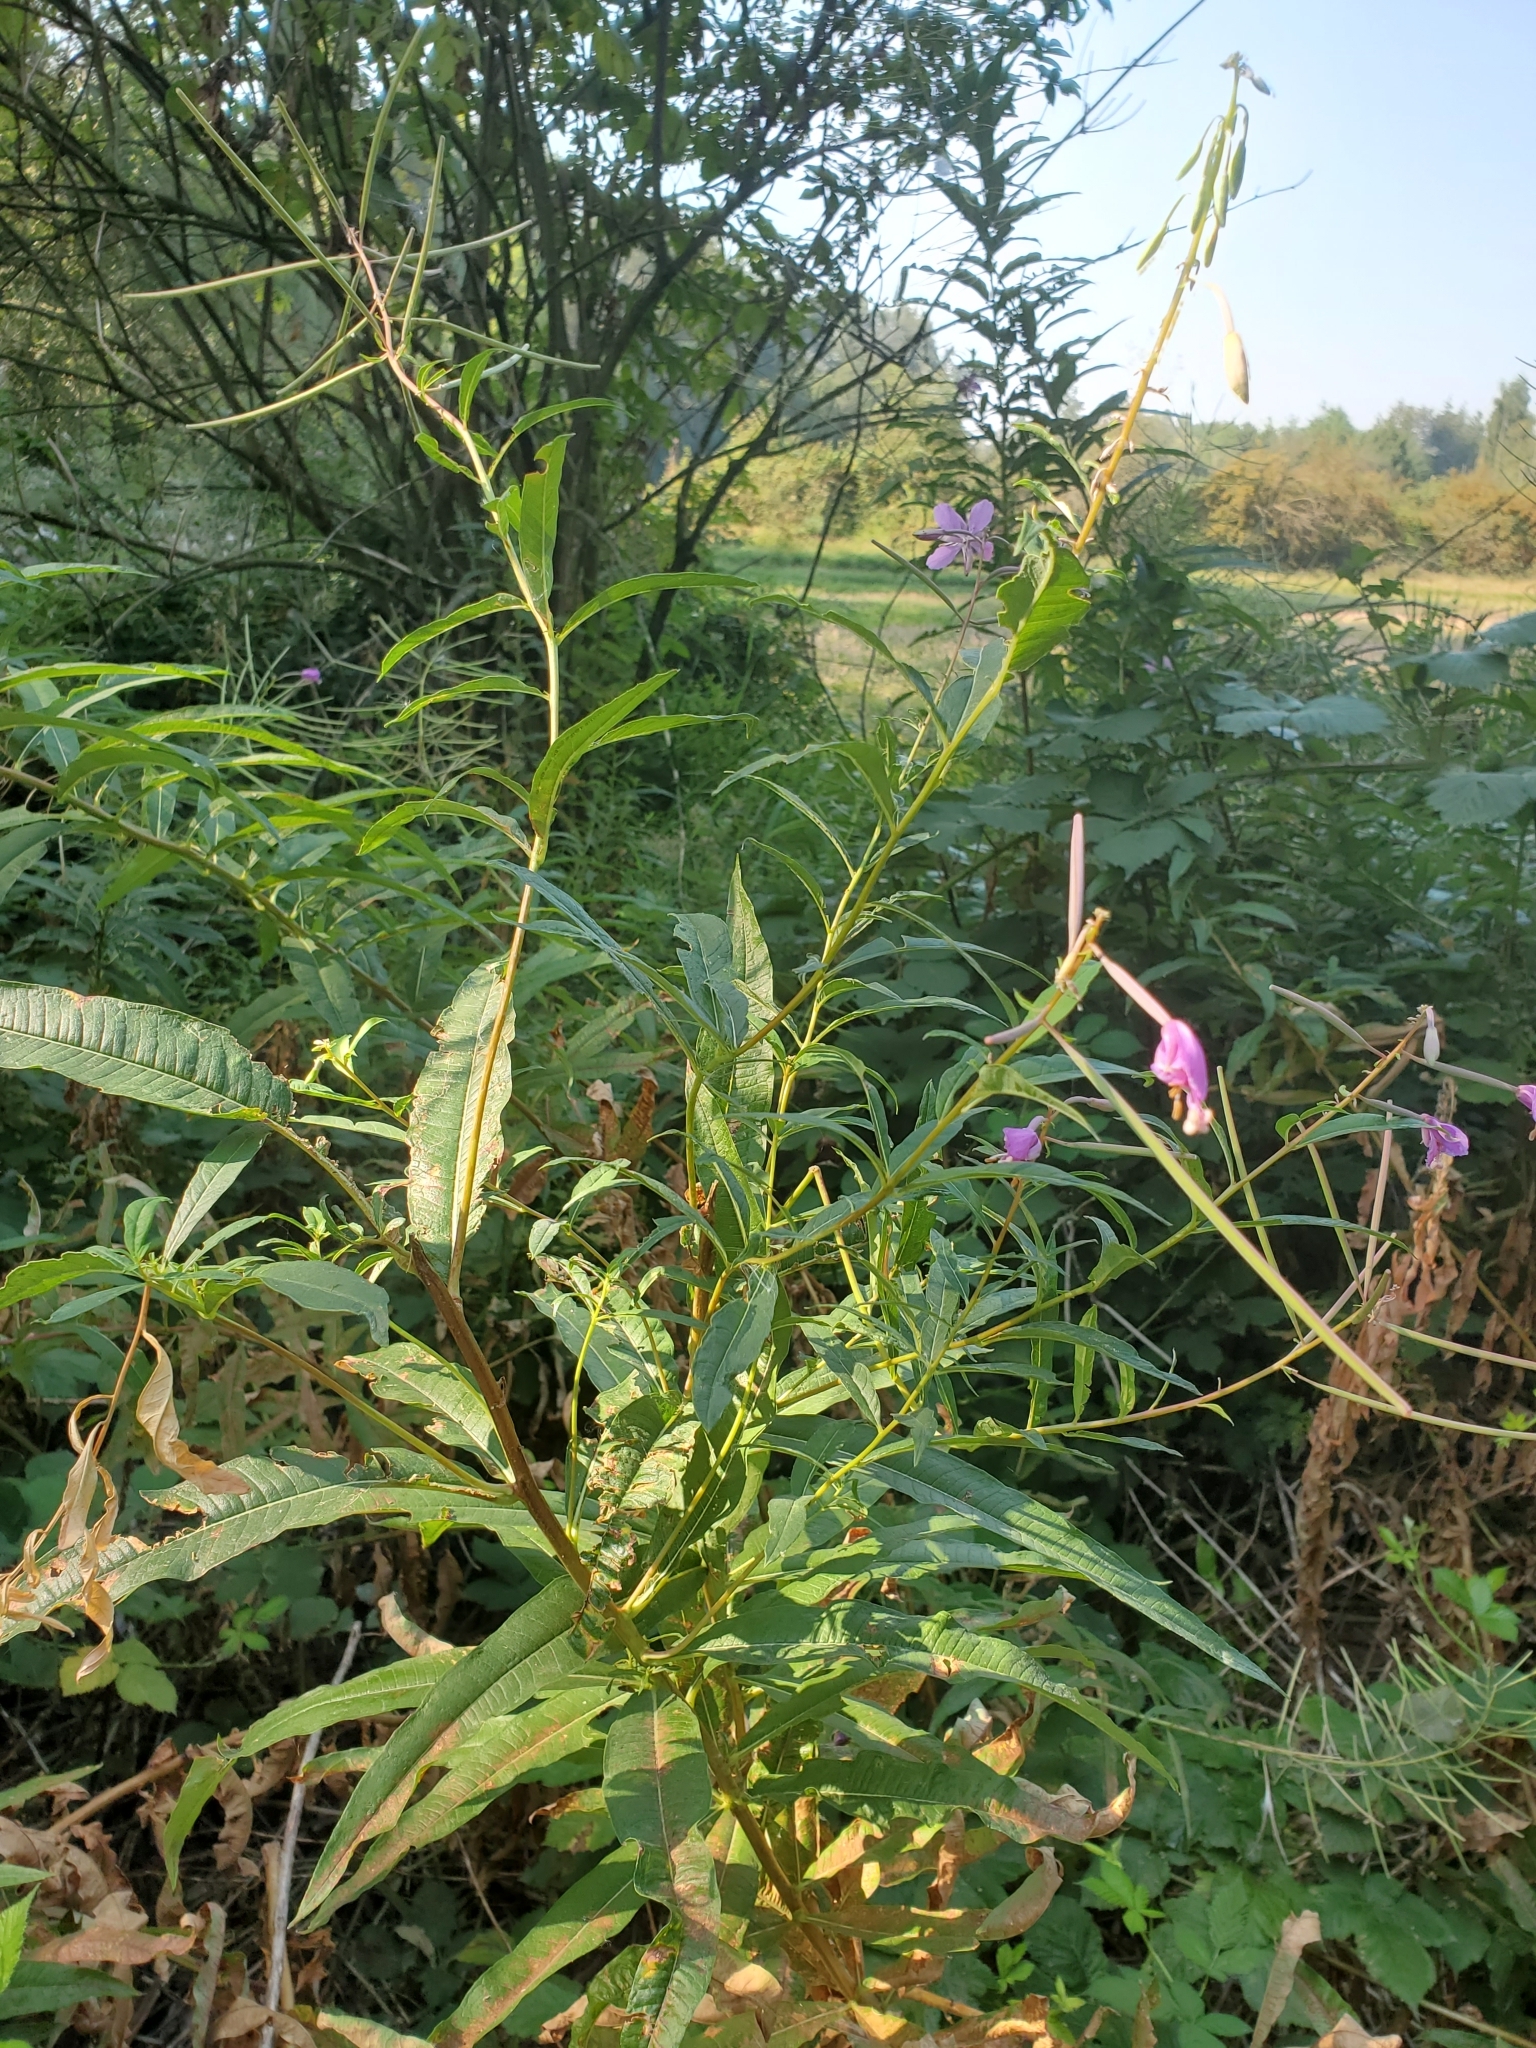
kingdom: Plantae
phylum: Tracheophyta
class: Magnoliopsida
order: Myrtales
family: Onagraceae
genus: Chamaenerion
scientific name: Chamaenerion angustifolium
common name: Fireweed
